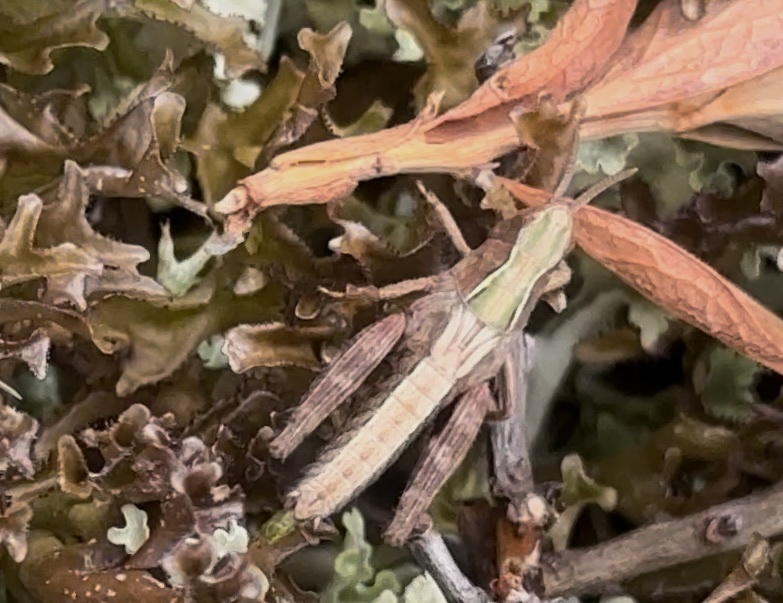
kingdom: Animalia
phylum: Arthropoda
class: Insecta
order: Orthoptera
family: Acrididae
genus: Omocestus
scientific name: Omocestus viridulus
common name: Common green grasshopper
